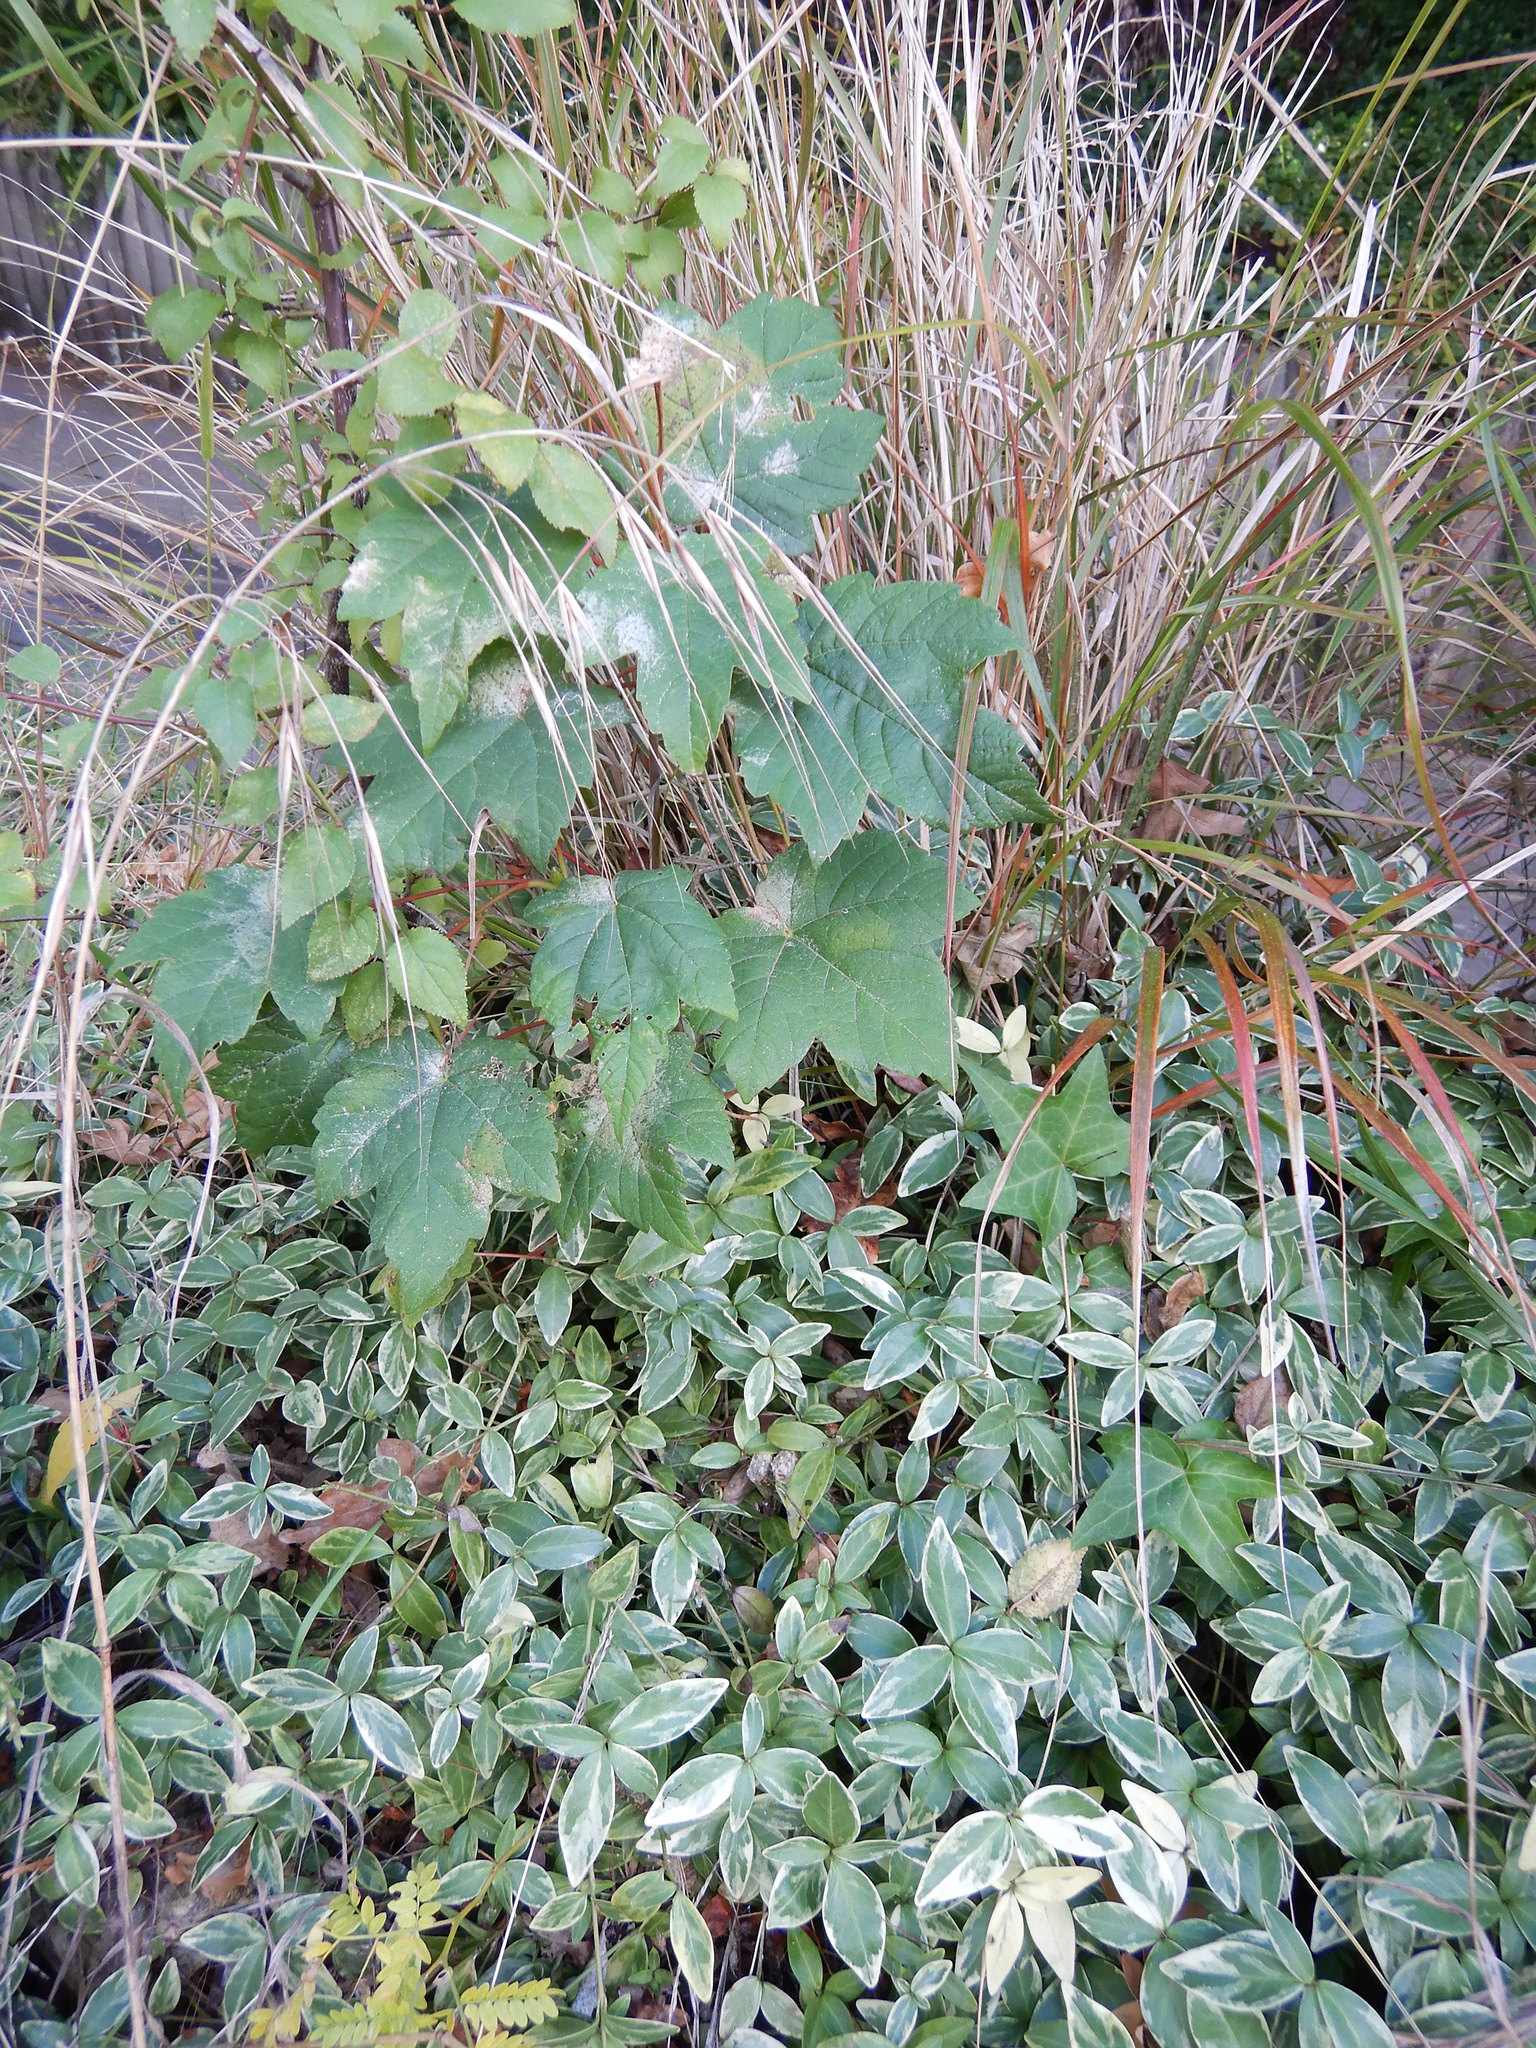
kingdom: Plantae
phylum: Tracheophyta
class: Magnoliopsida
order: Sapindales
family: Sapindaceae
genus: Acer
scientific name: Acer pseudoplatanus
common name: Sycamore
